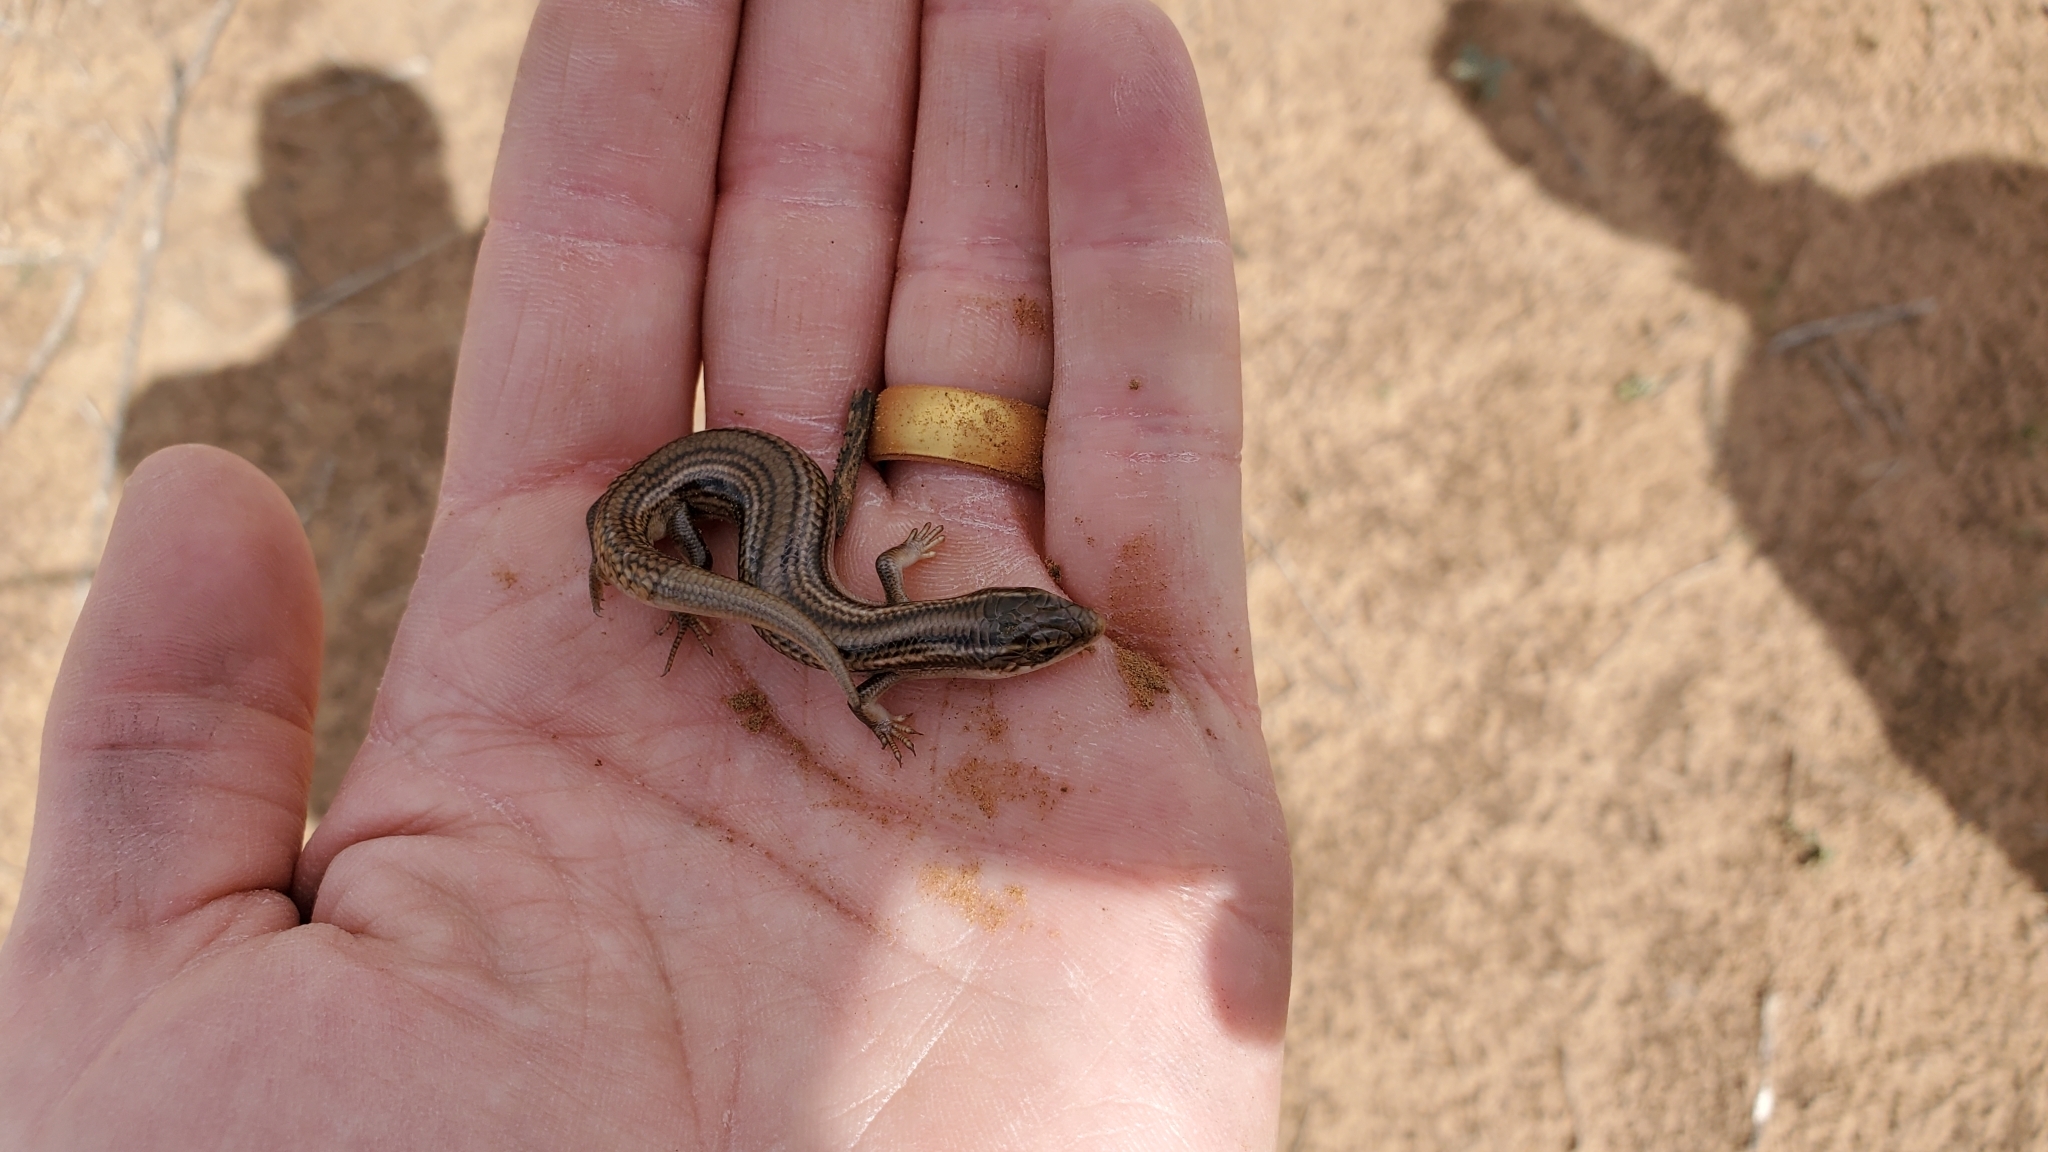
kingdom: Animalia
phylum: Chordata
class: Squamata
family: Scincidae
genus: Plestiodon
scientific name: Plestiodon multivirgatus
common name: Many-lined skink
